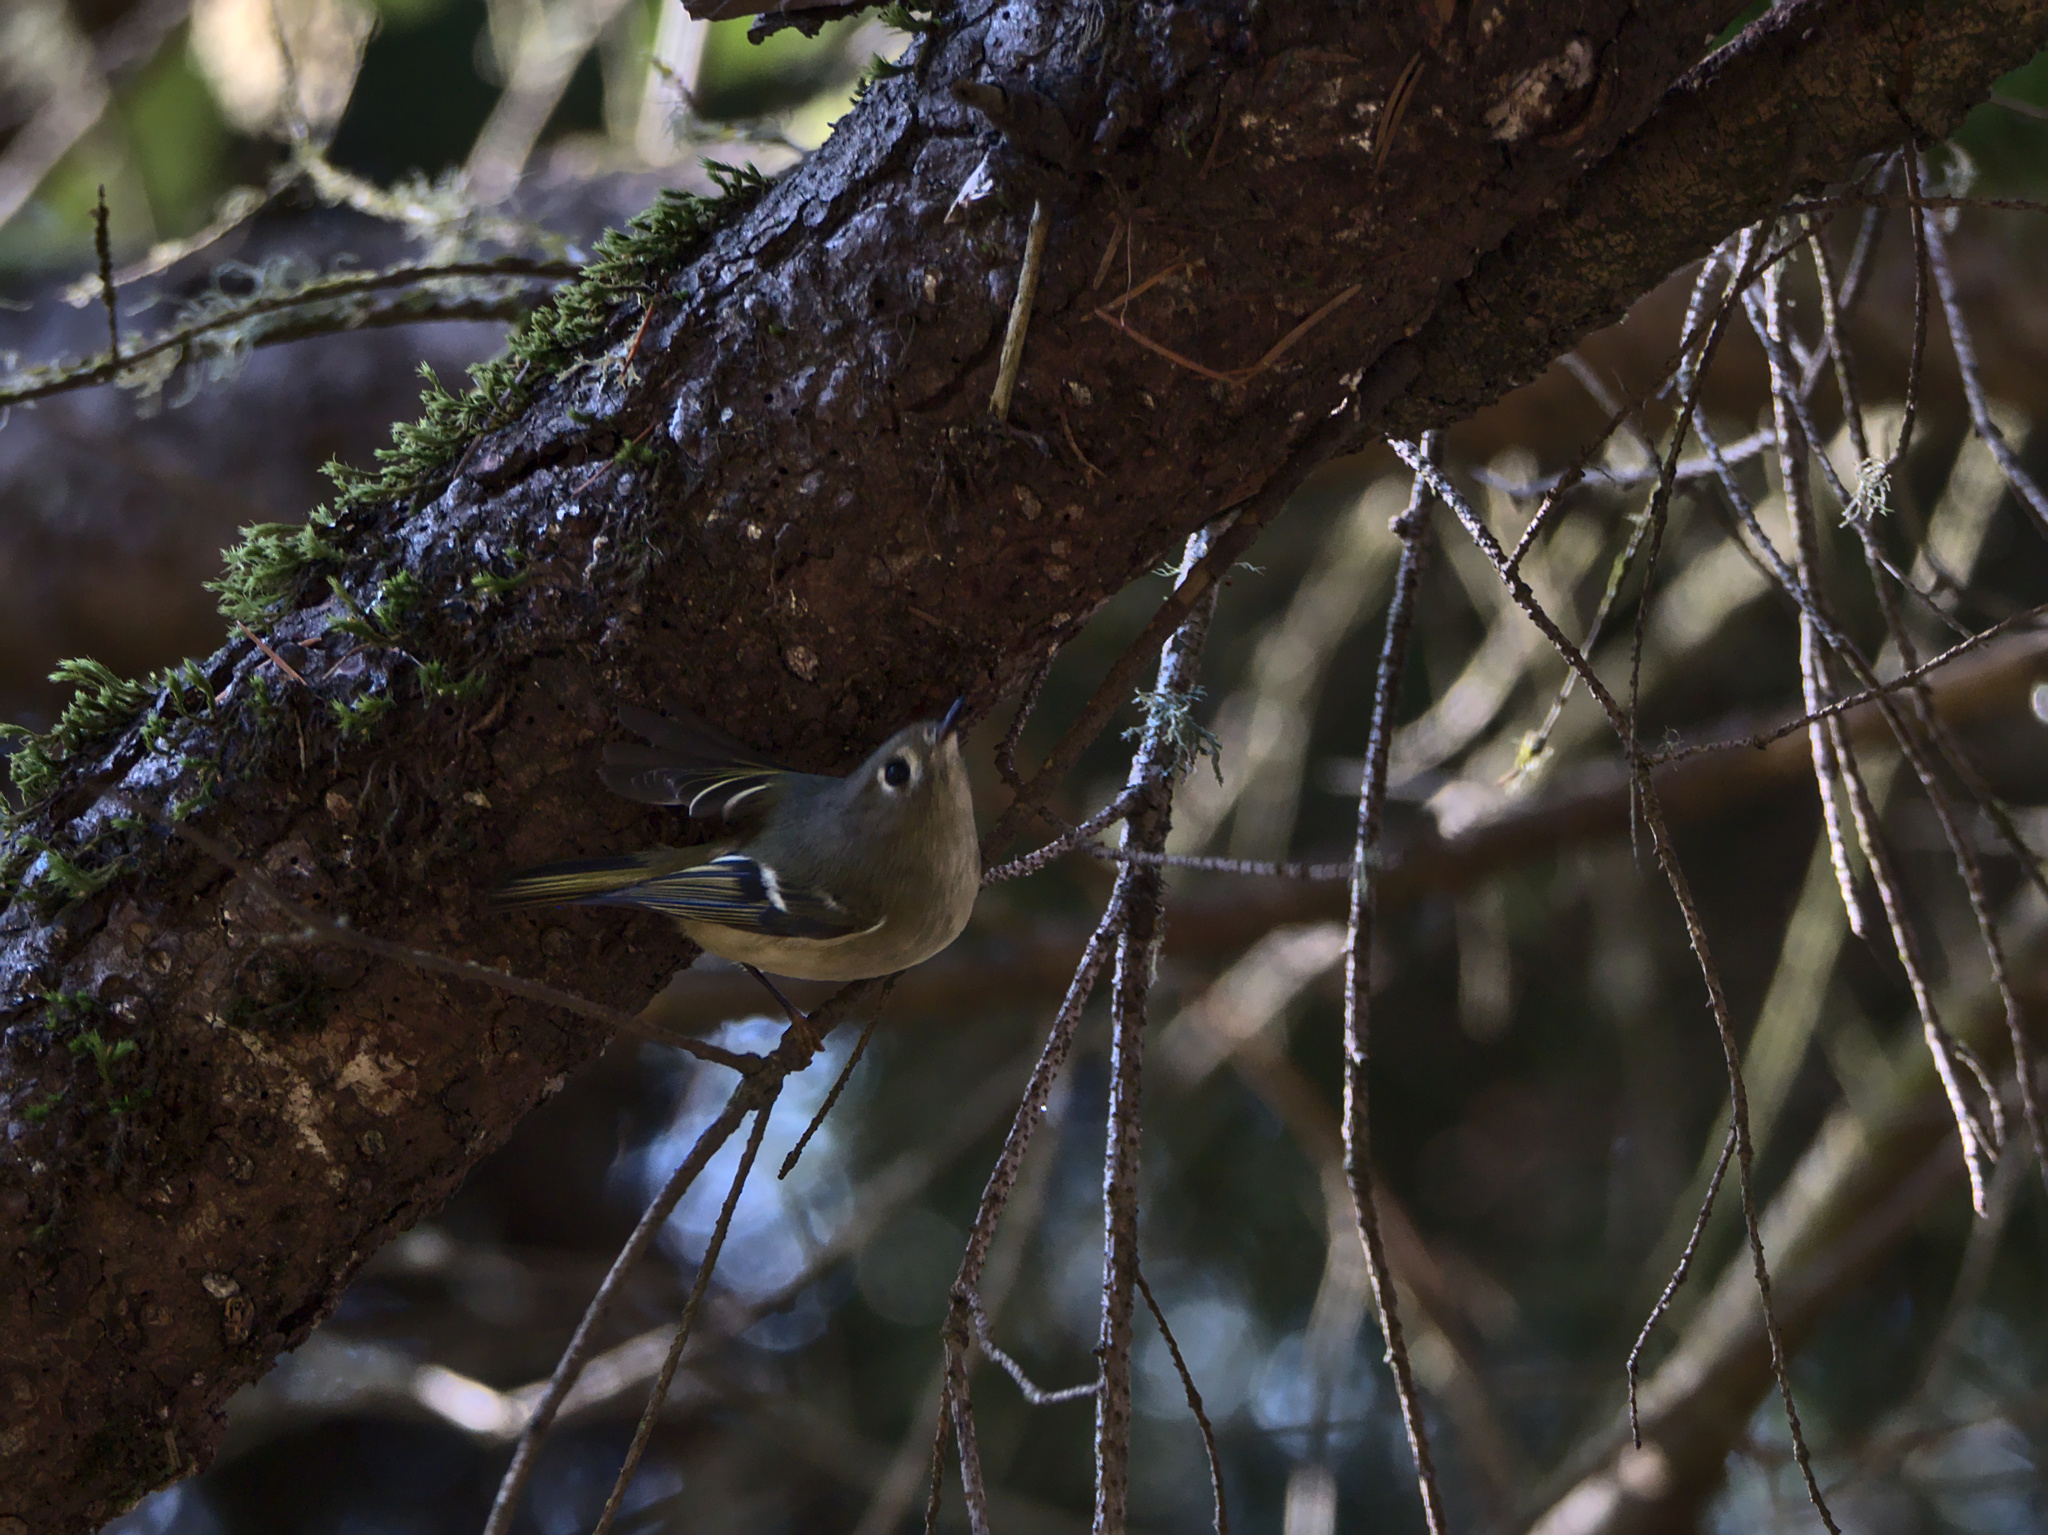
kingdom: Animalia
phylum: Chordata
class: Aves
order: Passeriformes
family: Regulidae
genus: Regulus
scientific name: Regulus calendula
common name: Ruby-crowned kinglet
